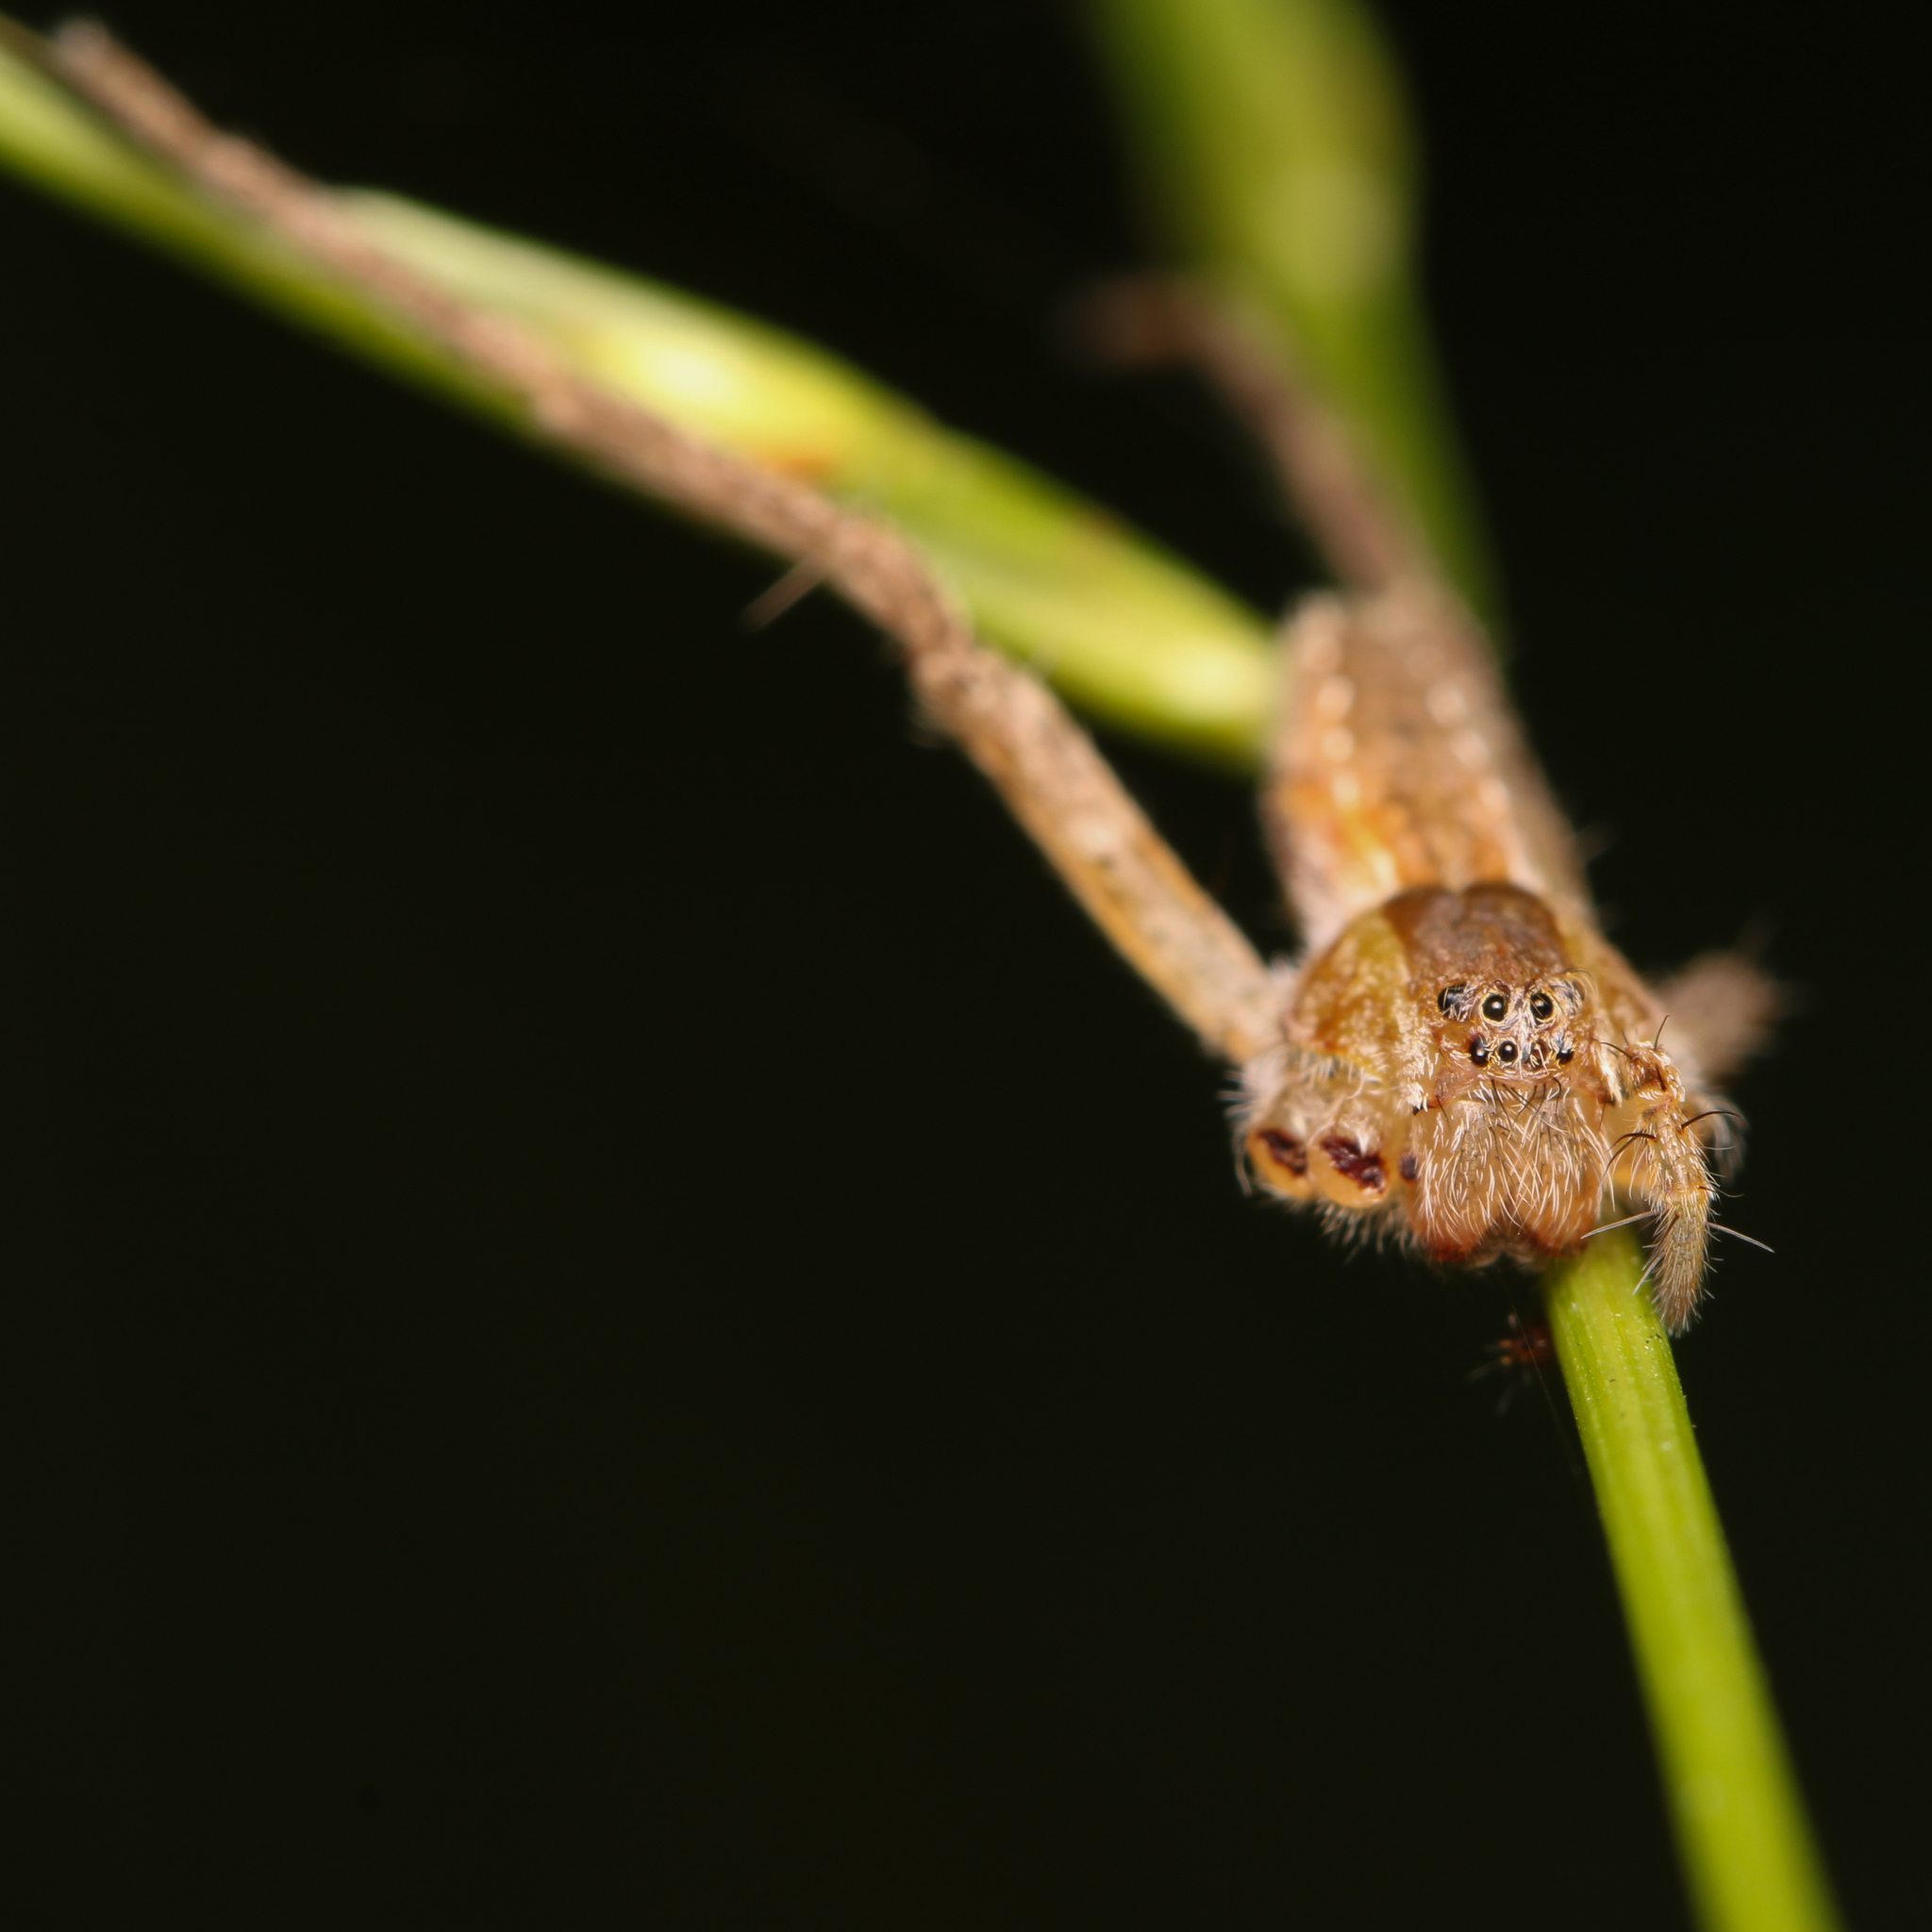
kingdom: Animalia
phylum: Arthropoda
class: Arachnida
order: Araneae
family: Pisauridae
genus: Pisaurina
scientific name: Pisaurina mira
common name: American nursery web spider
